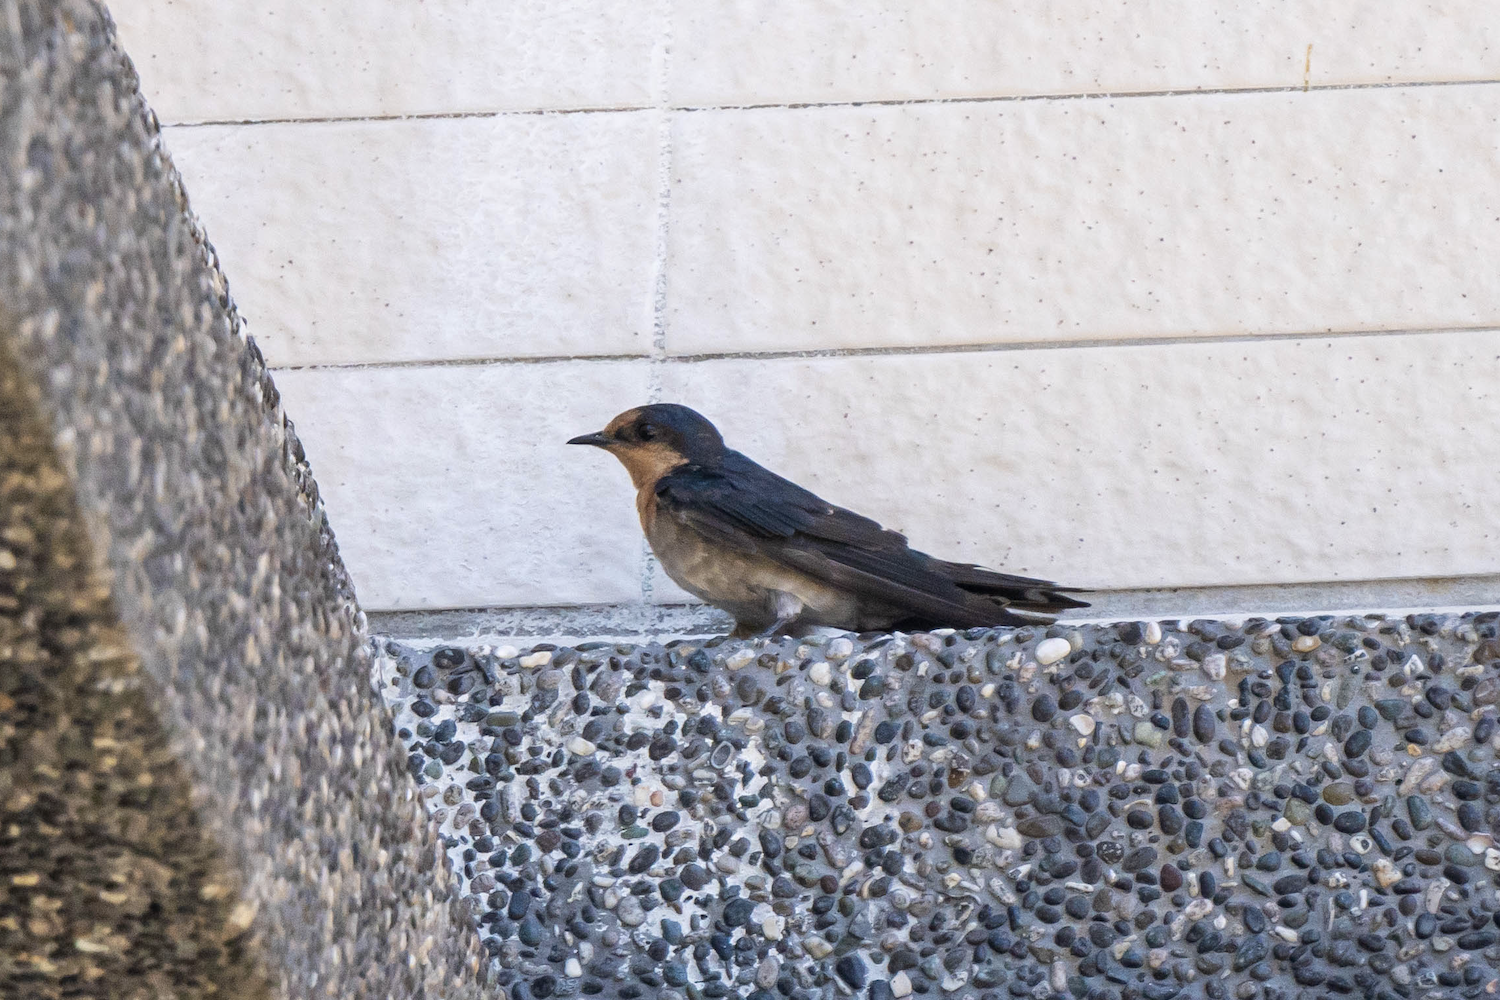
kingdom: Animalia
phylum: Chordata
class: Aves
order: Passeriformes
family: Hirundinidae
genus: Hirundo
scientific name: Hirundo tahitica
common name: Pacific swallow
